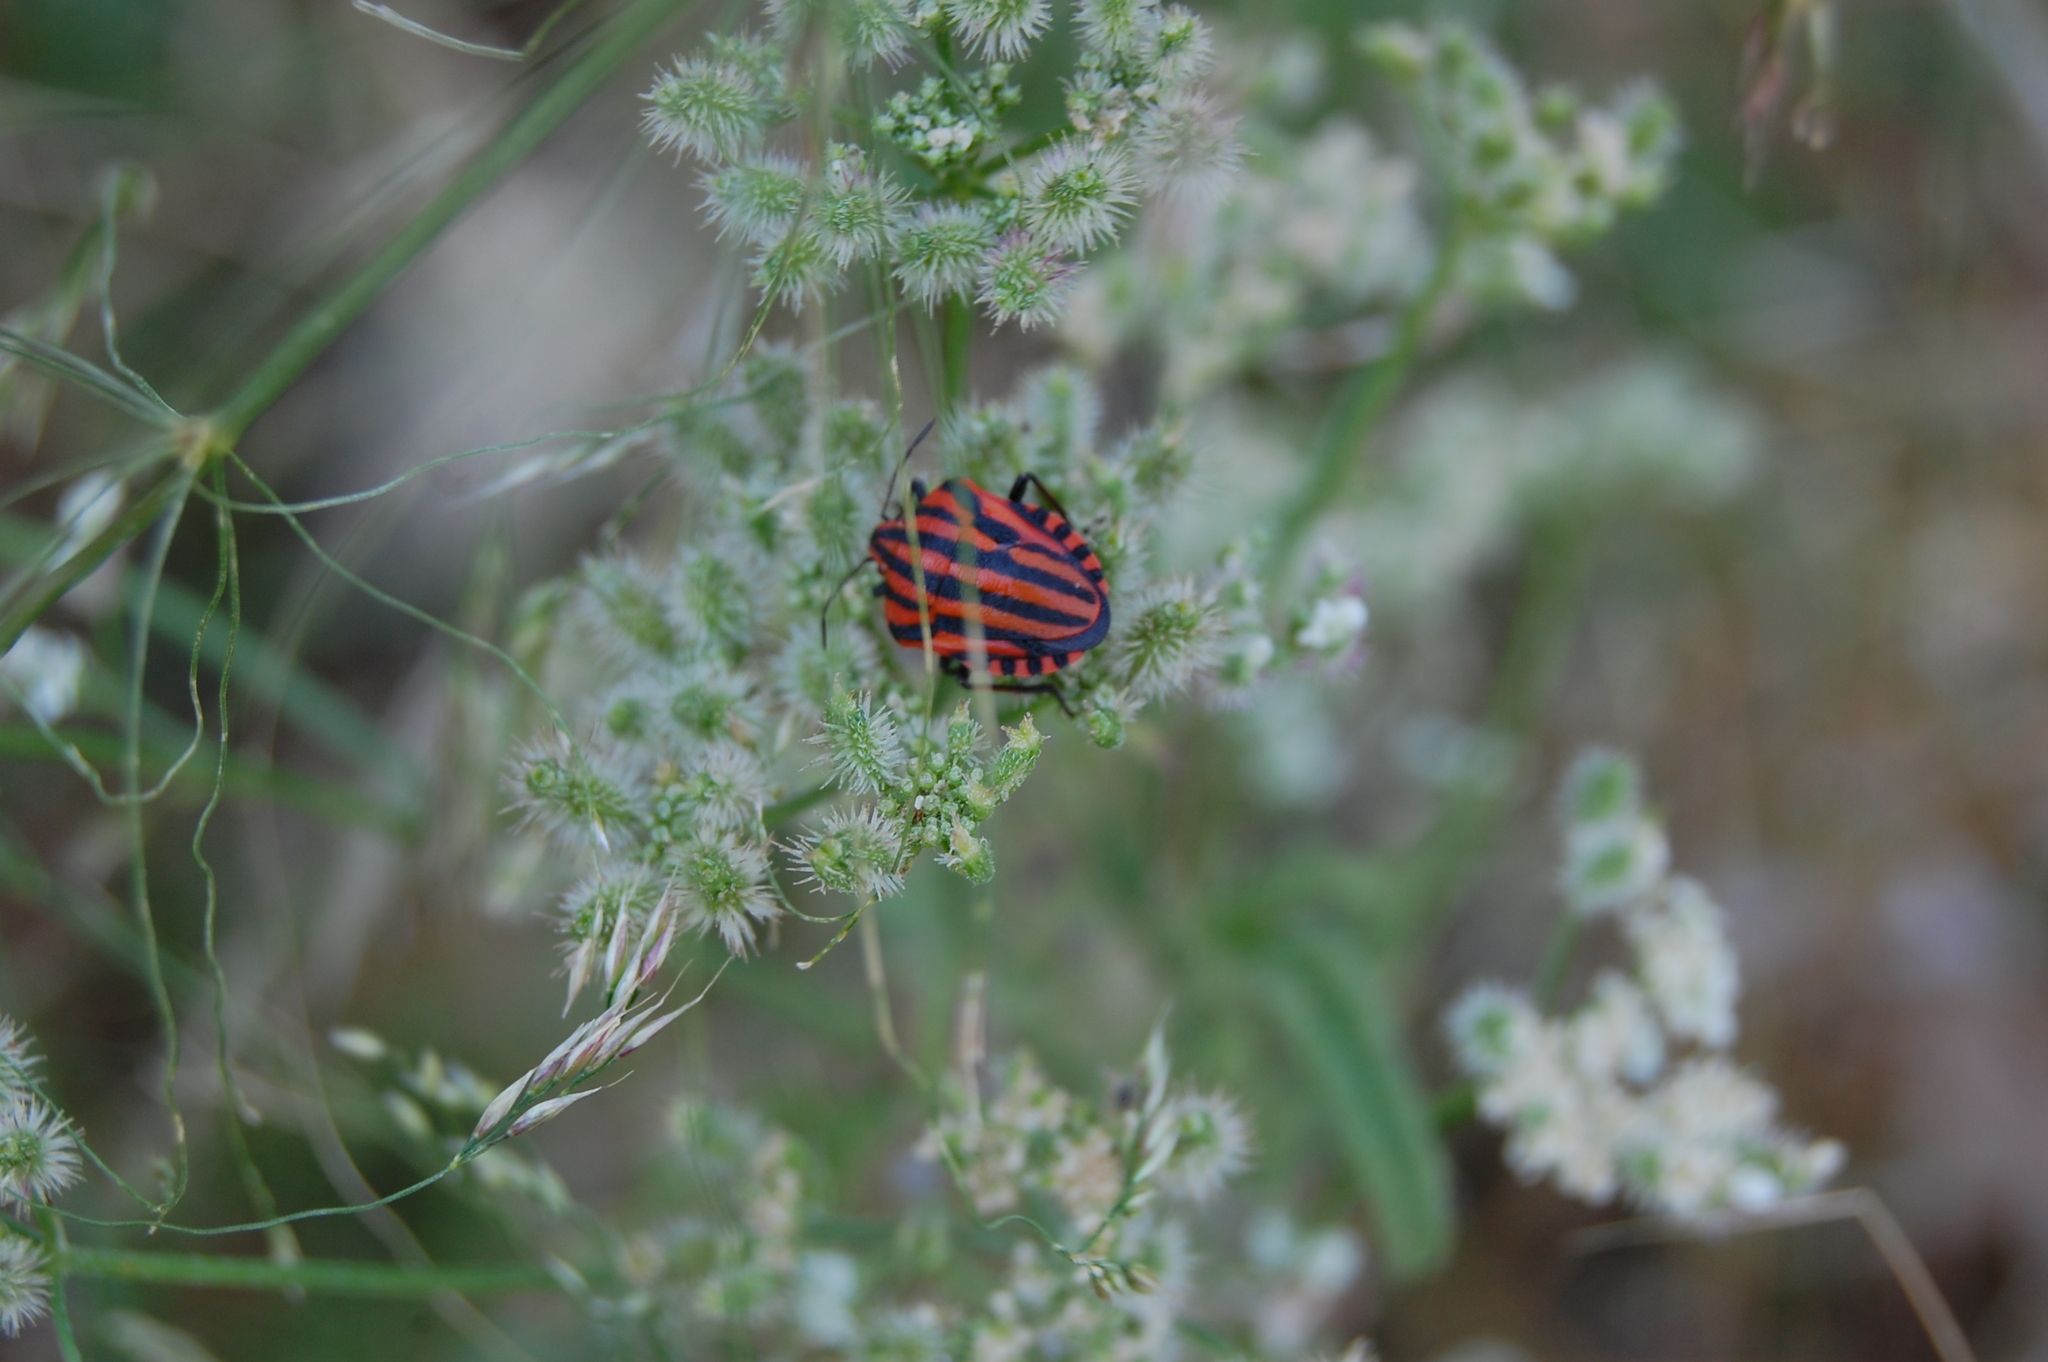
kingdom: Animalia
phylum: Arthropoda
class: Insecta
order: Hemiptera
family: Pentatomidae
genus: Graphosoma
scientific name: Graphosoma italicum
